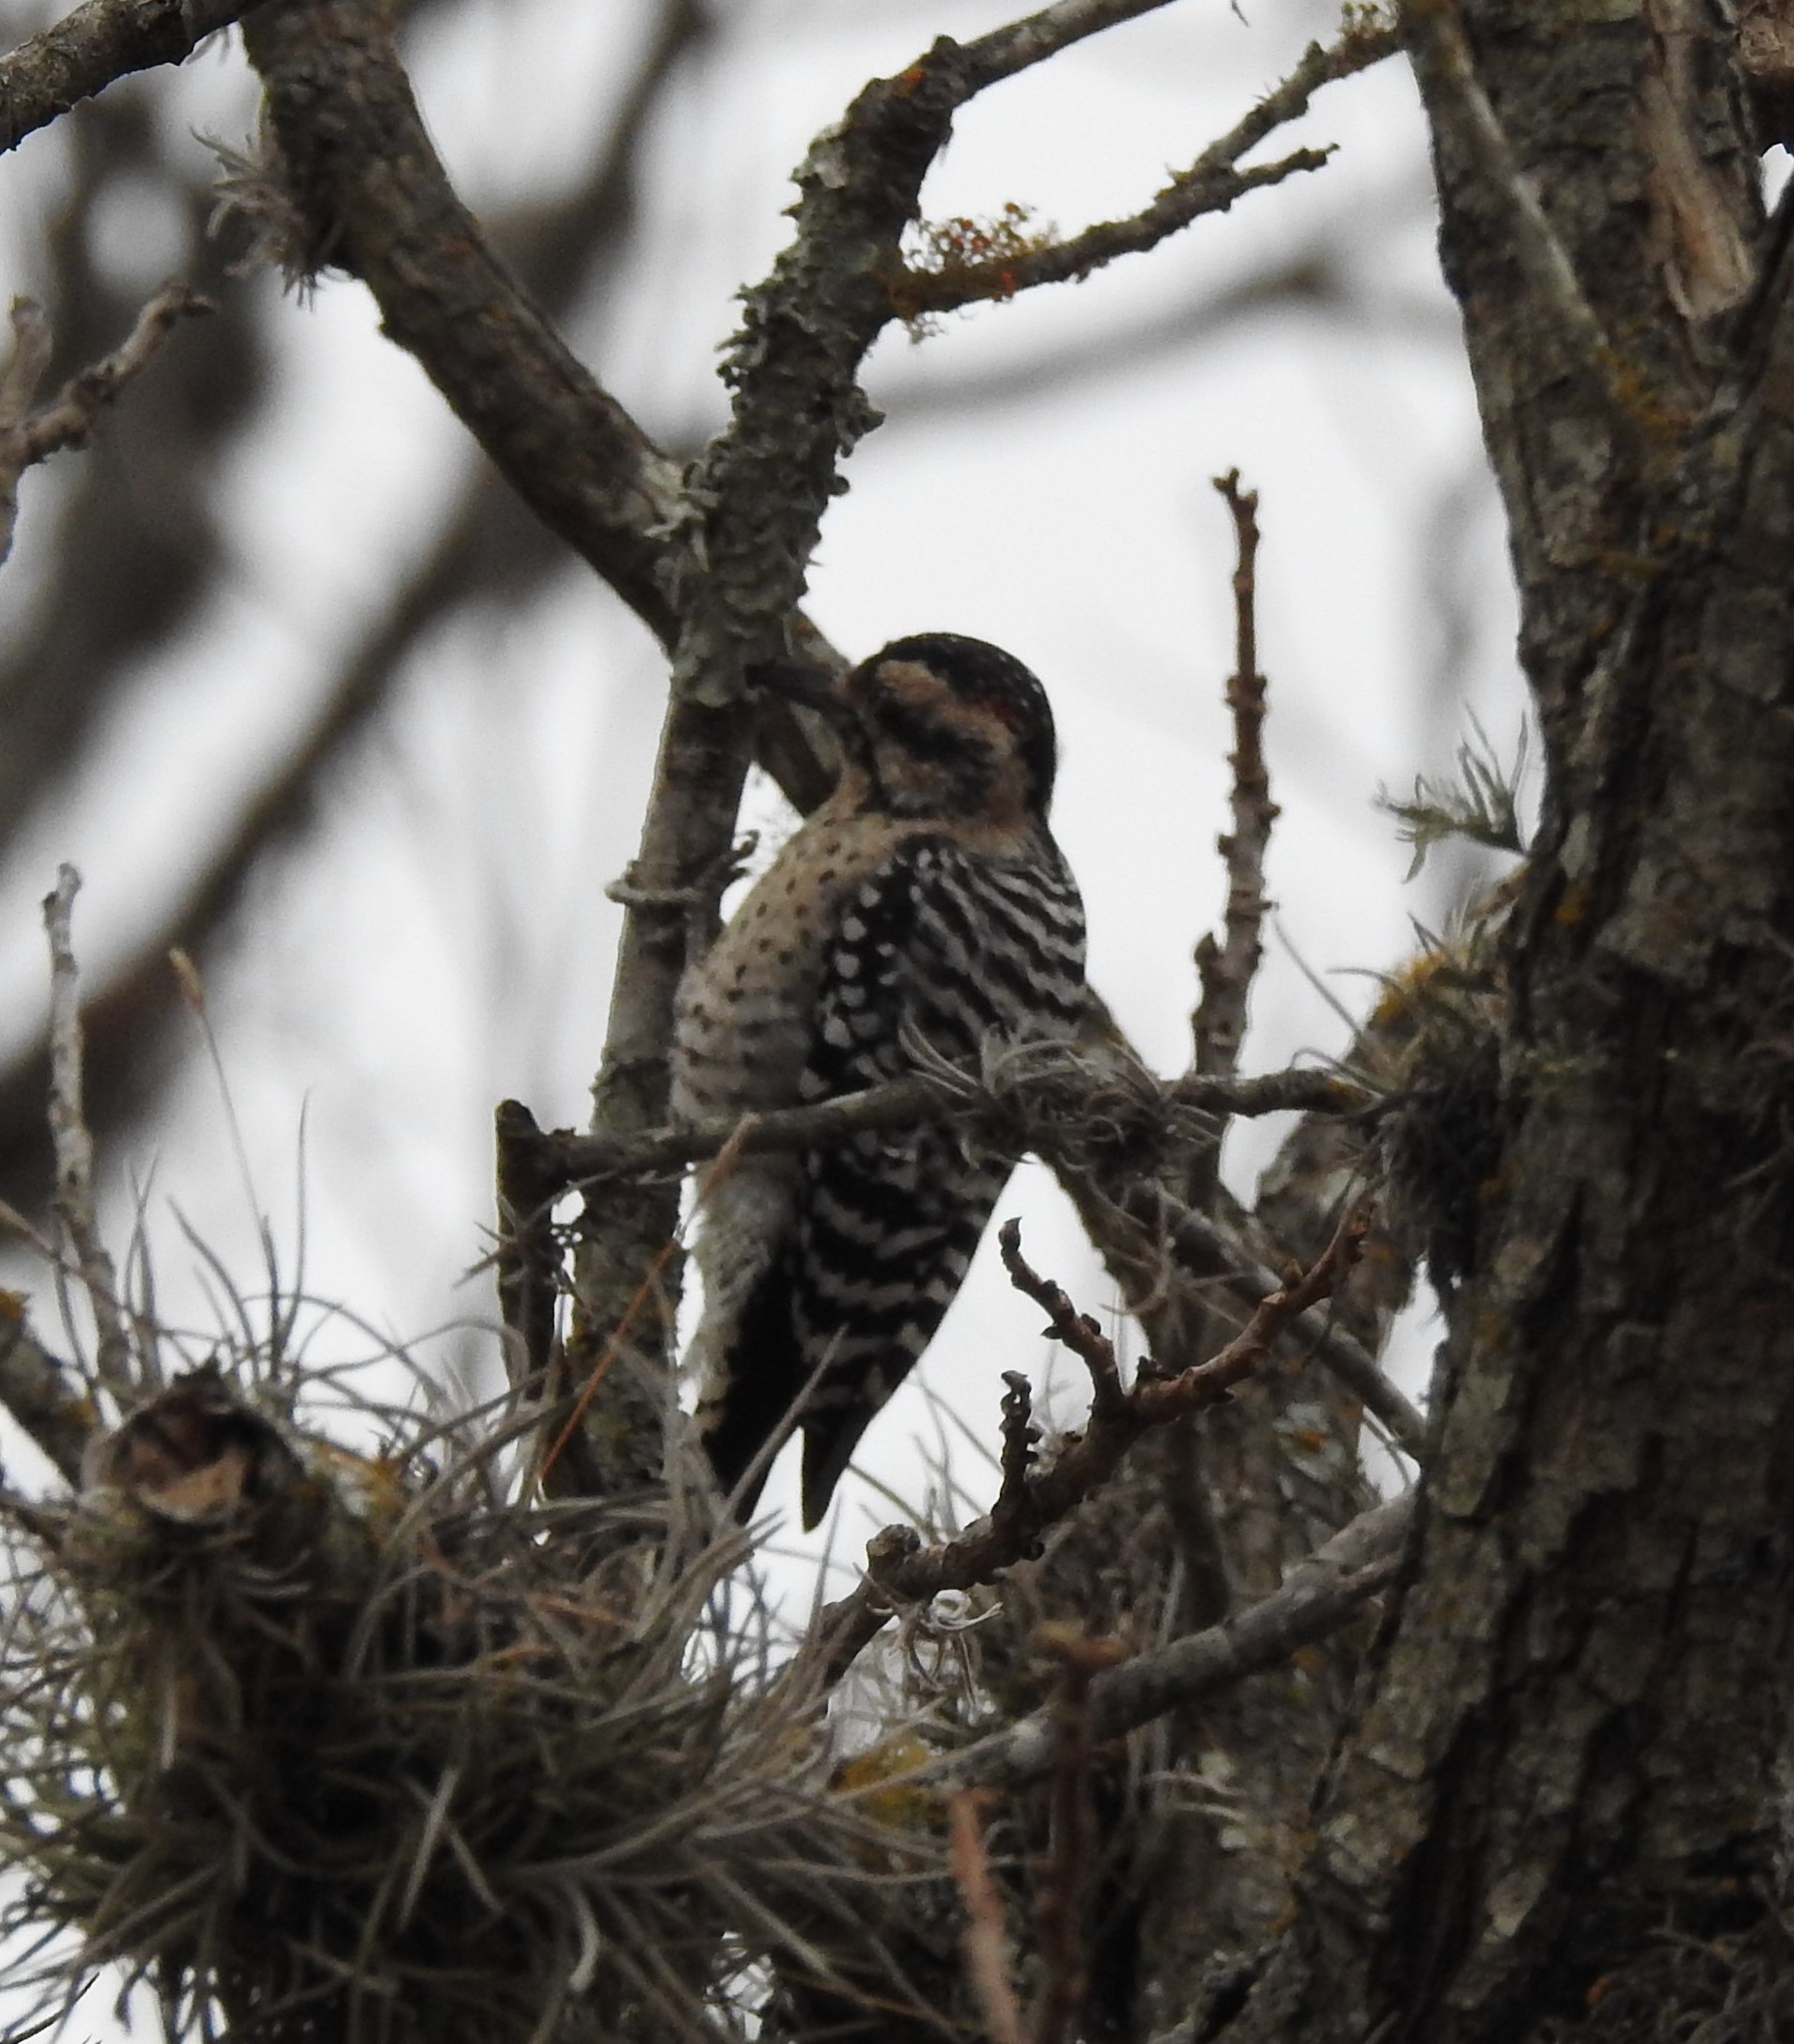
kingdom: Animalia
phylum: Chordata
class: Aves
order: Piciformes
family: Picidae
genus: Dryobates
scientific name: Dryobates scalaris
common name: Ladder-backed woodpecker
